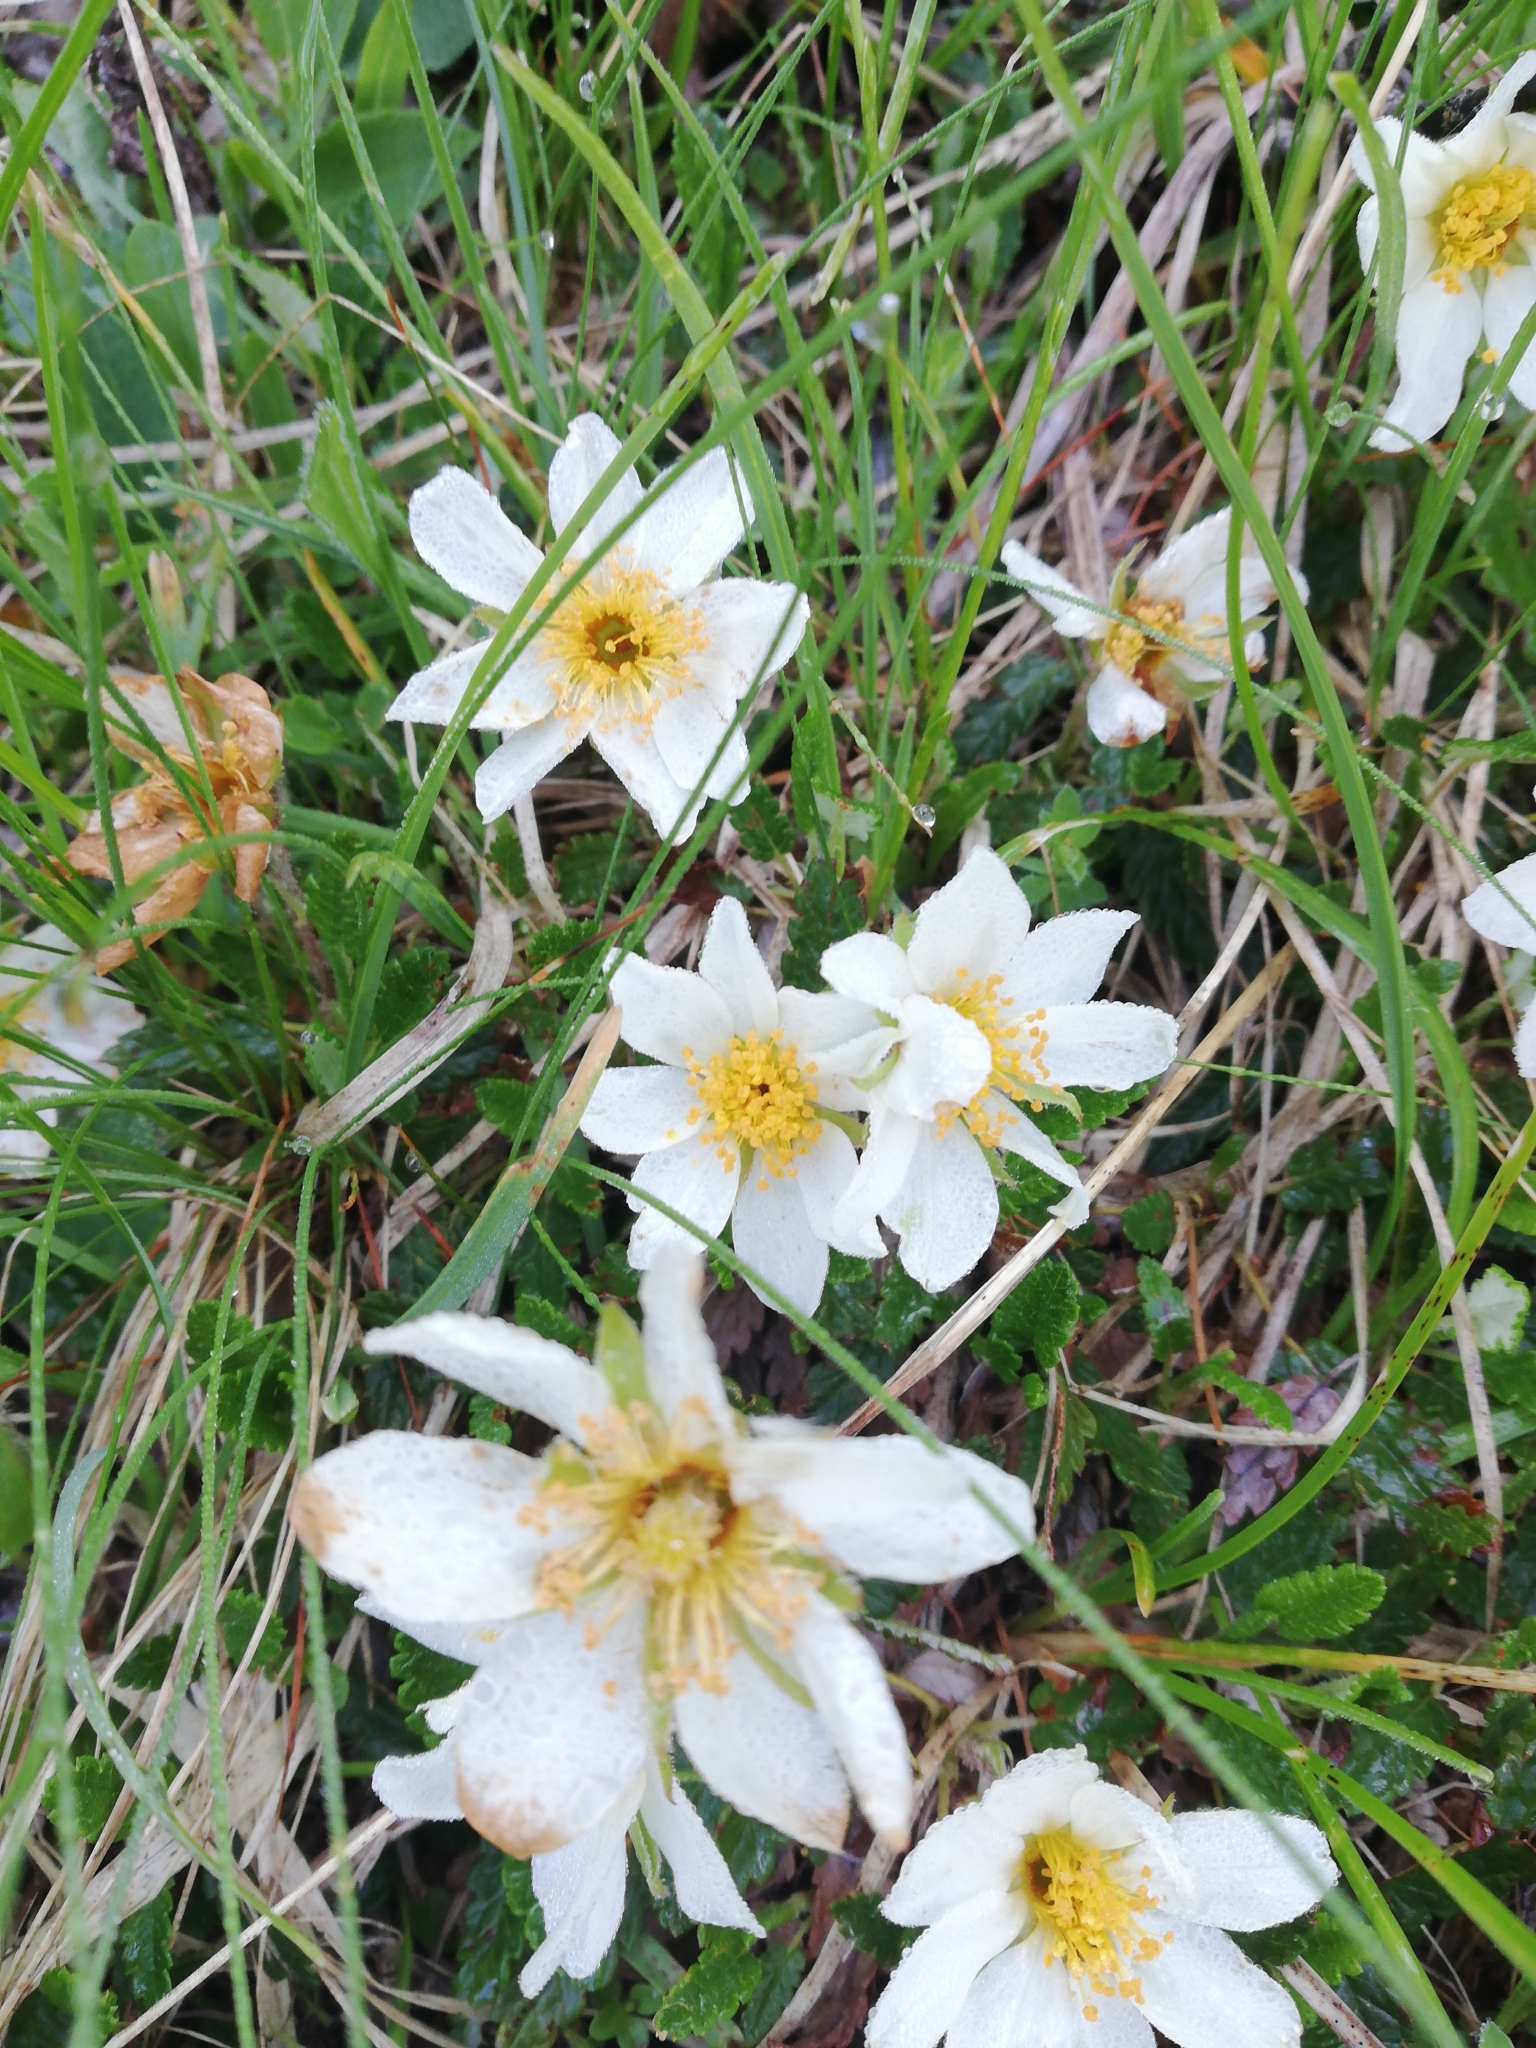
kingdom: Plantae
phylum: Tracheophyta
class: Magnoliopsida
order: Rosales
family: Rosaceae
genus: Dryas
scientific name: Dryas octopetala
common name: Eight-petal mountain-avens
